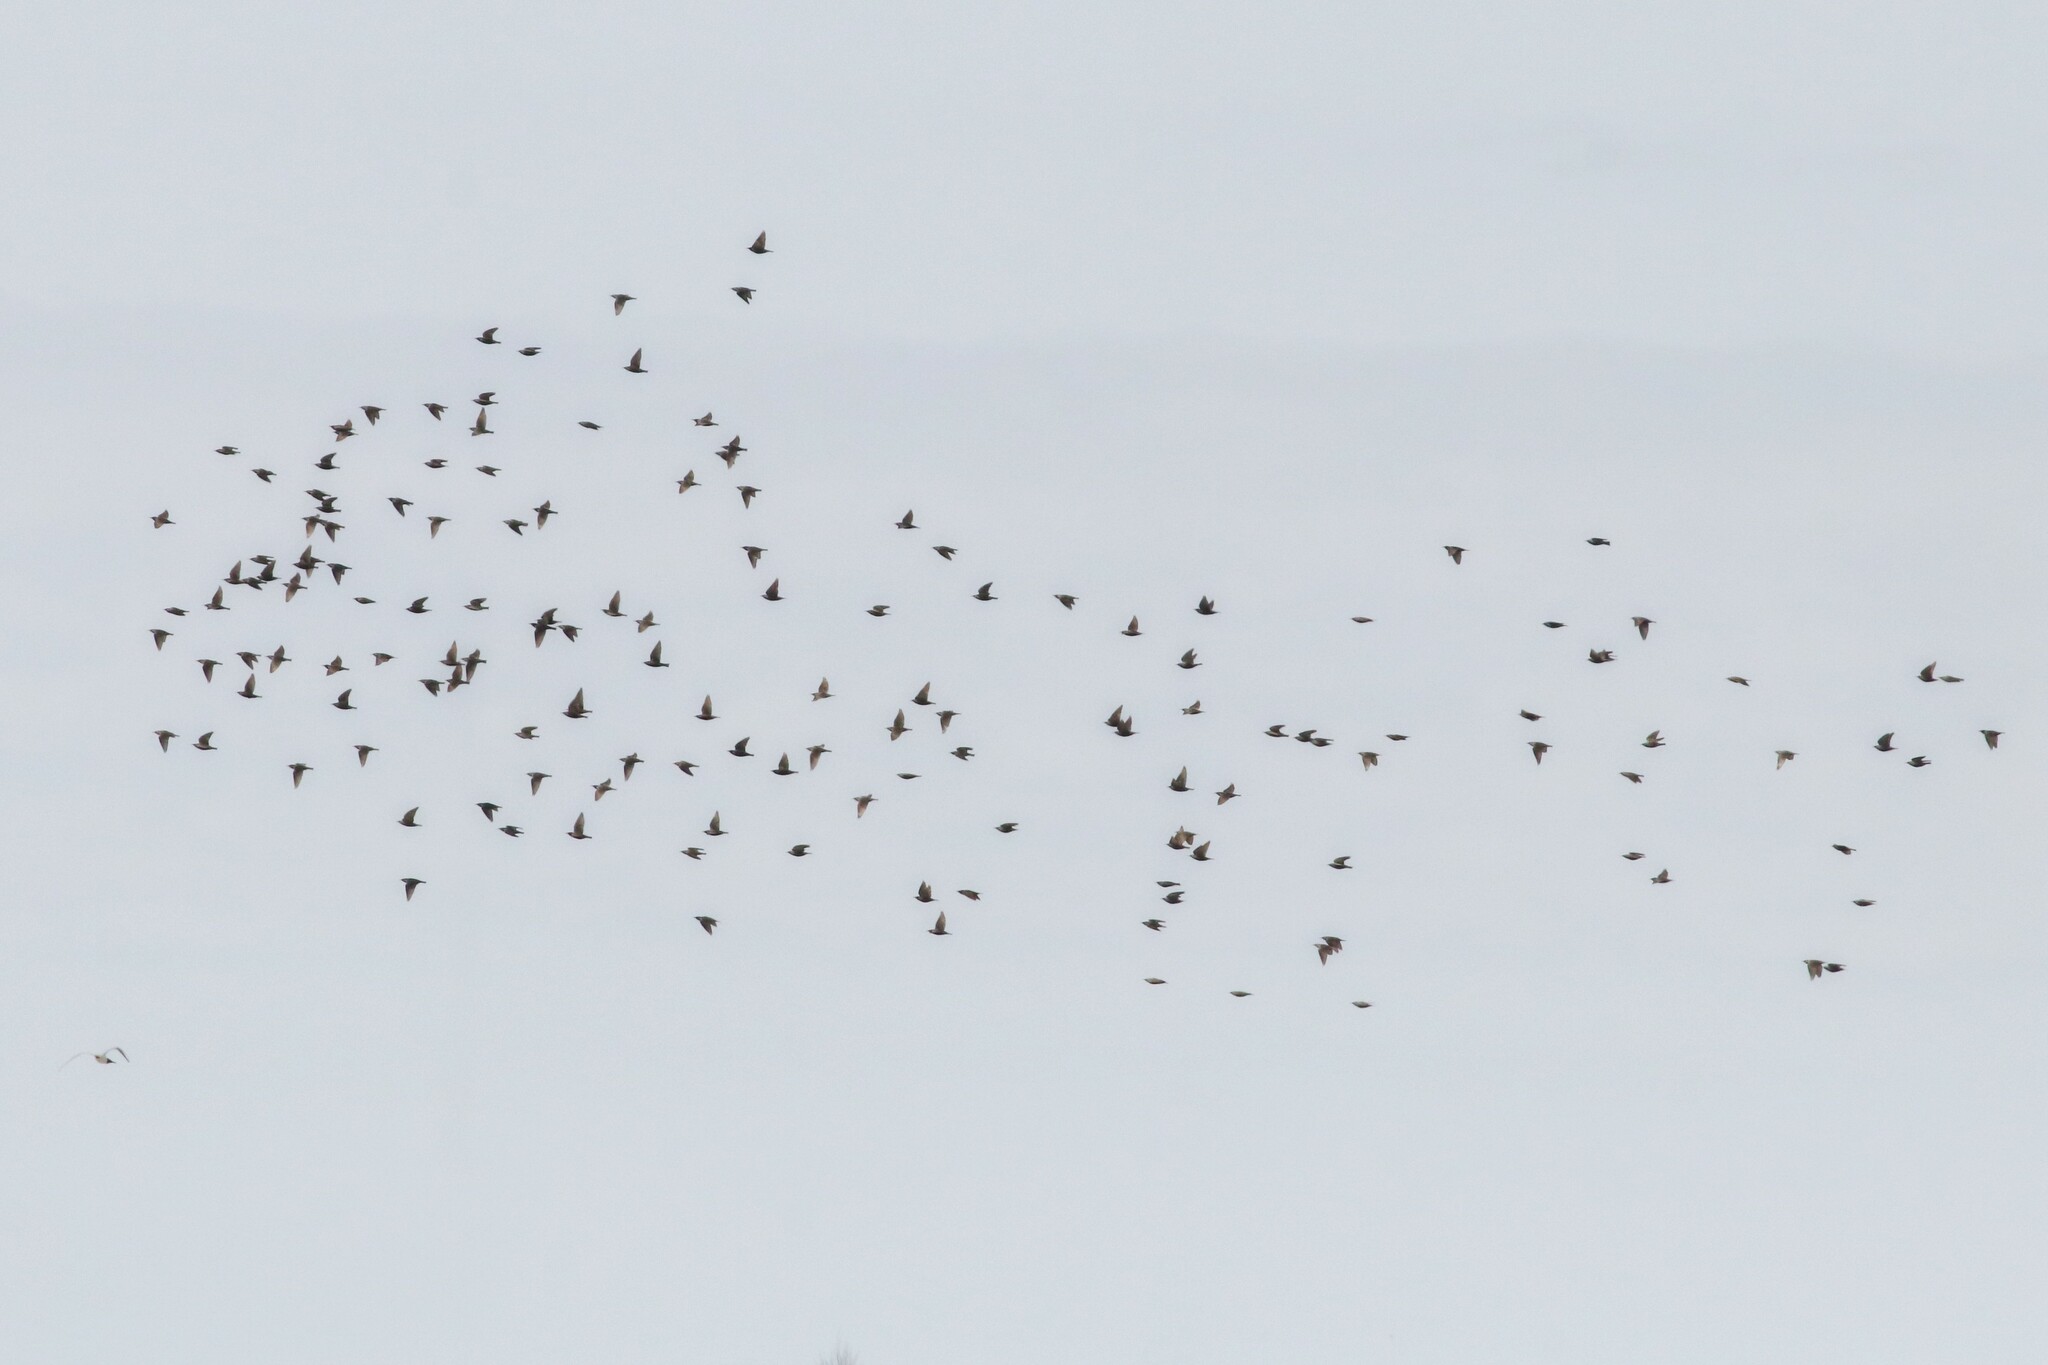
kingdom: Animalia
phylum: Chordata
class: Aves
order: Passeriformes
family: Sturnidae
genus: Sturnus
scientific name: Sturnus vulgaris
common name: Common starling
